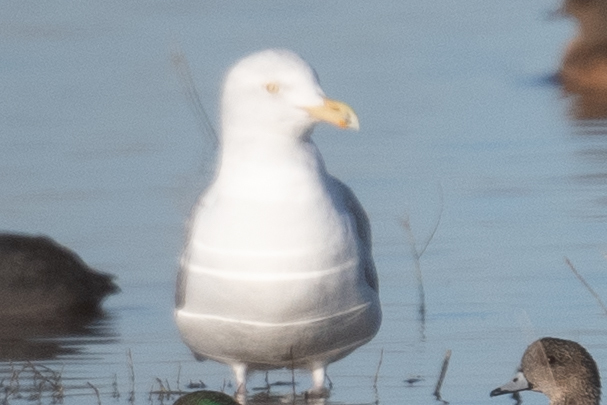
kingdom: Animalia
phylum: Chordata
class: Aves
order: Charadriiformes
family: Laridae
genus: Larus
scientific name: Larus argentatus
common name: Herring gull
